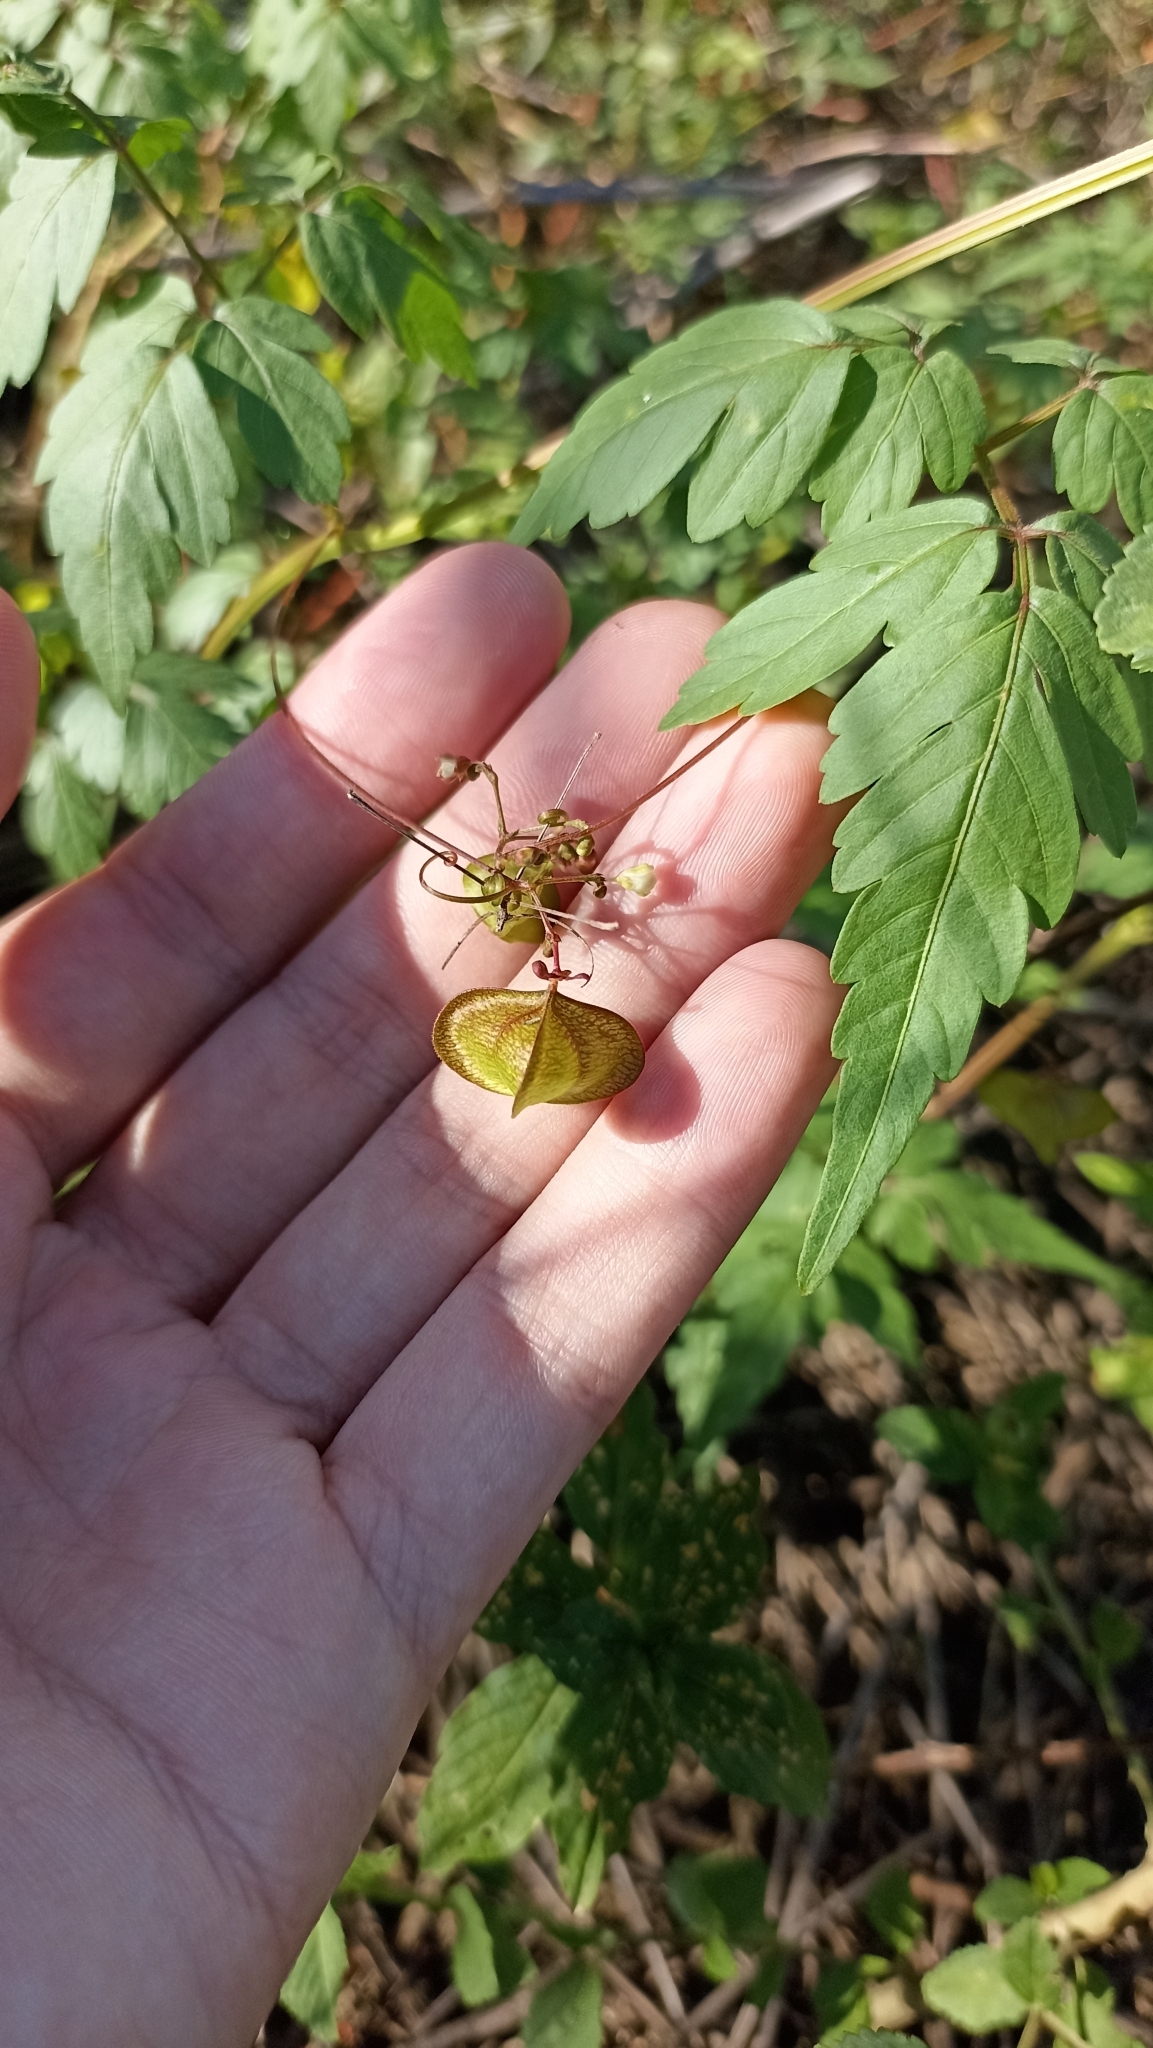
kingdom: Plantae
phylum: Tracheophyta
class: Magnoliopsida
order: Sapindales
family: Sapindaceae
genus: Cardiospermum
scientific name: Cardiospermum corindum
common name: Faux persil
